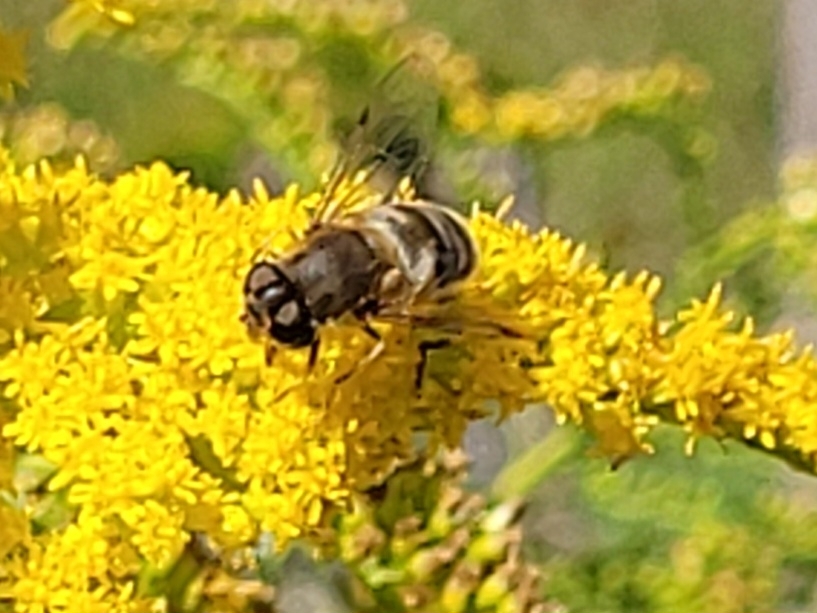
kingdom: Animalia
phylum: Arthropoda
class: Insecta
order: Diptera
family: Syrphidae
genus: Eristalis
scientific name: Eristalis pertinax
